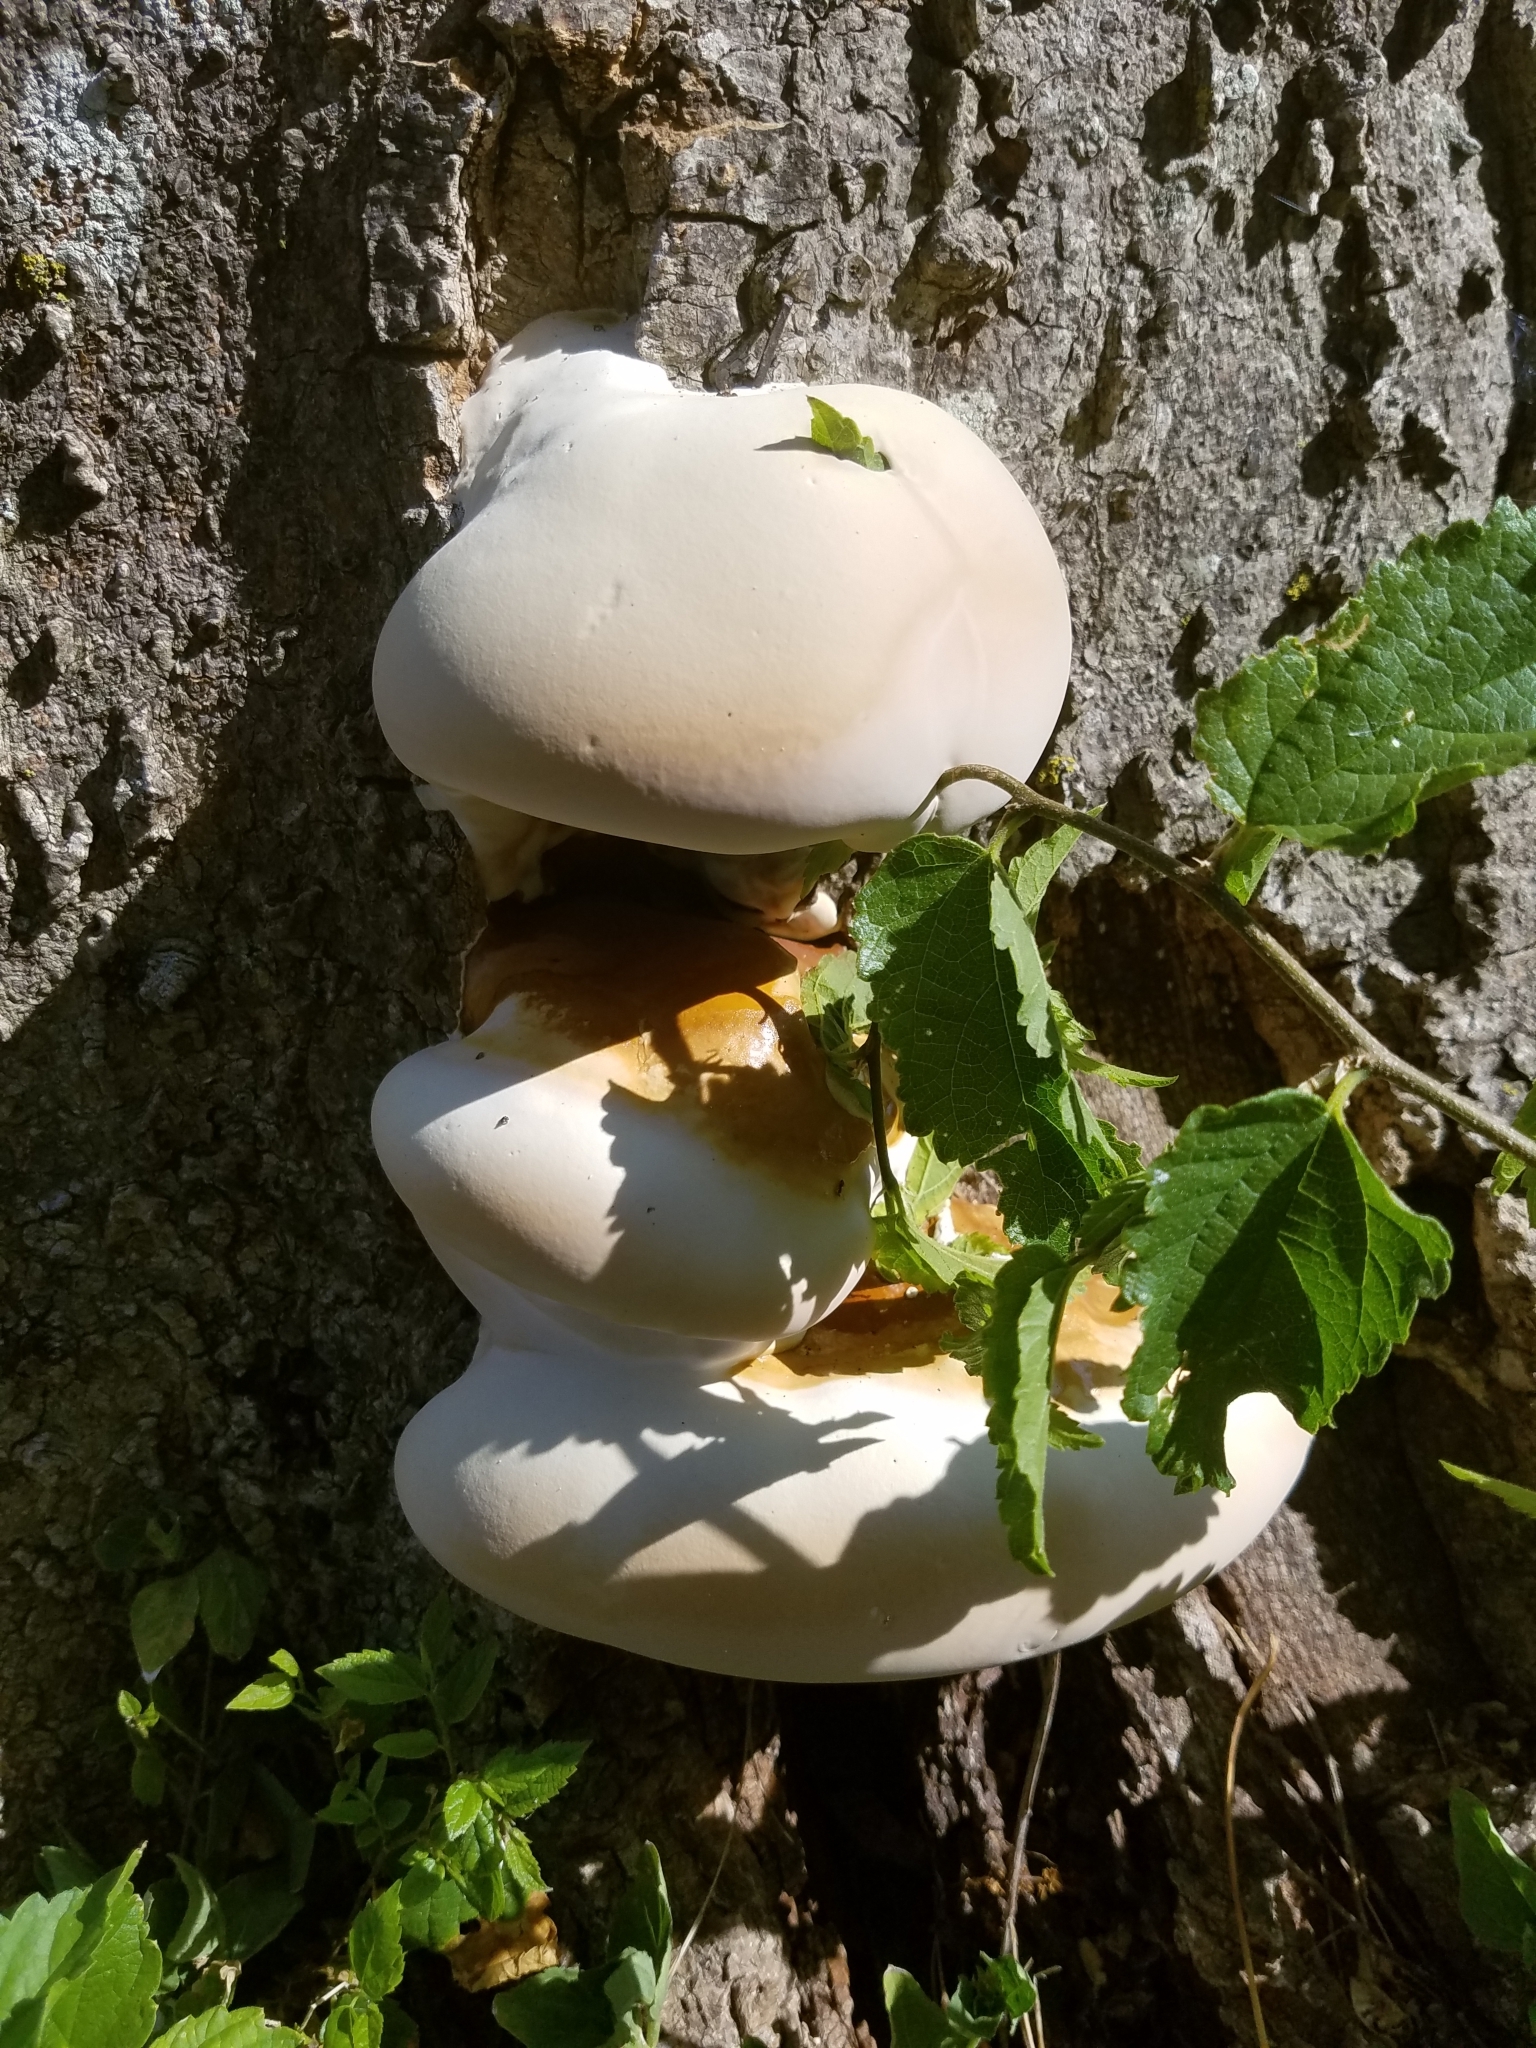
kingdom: Fungi
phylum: Basidiomycota
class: Agaricomycetes
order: Polyporales
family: Polyporaceae
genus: Ganoderma
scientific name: Ganoderma resinaceum
